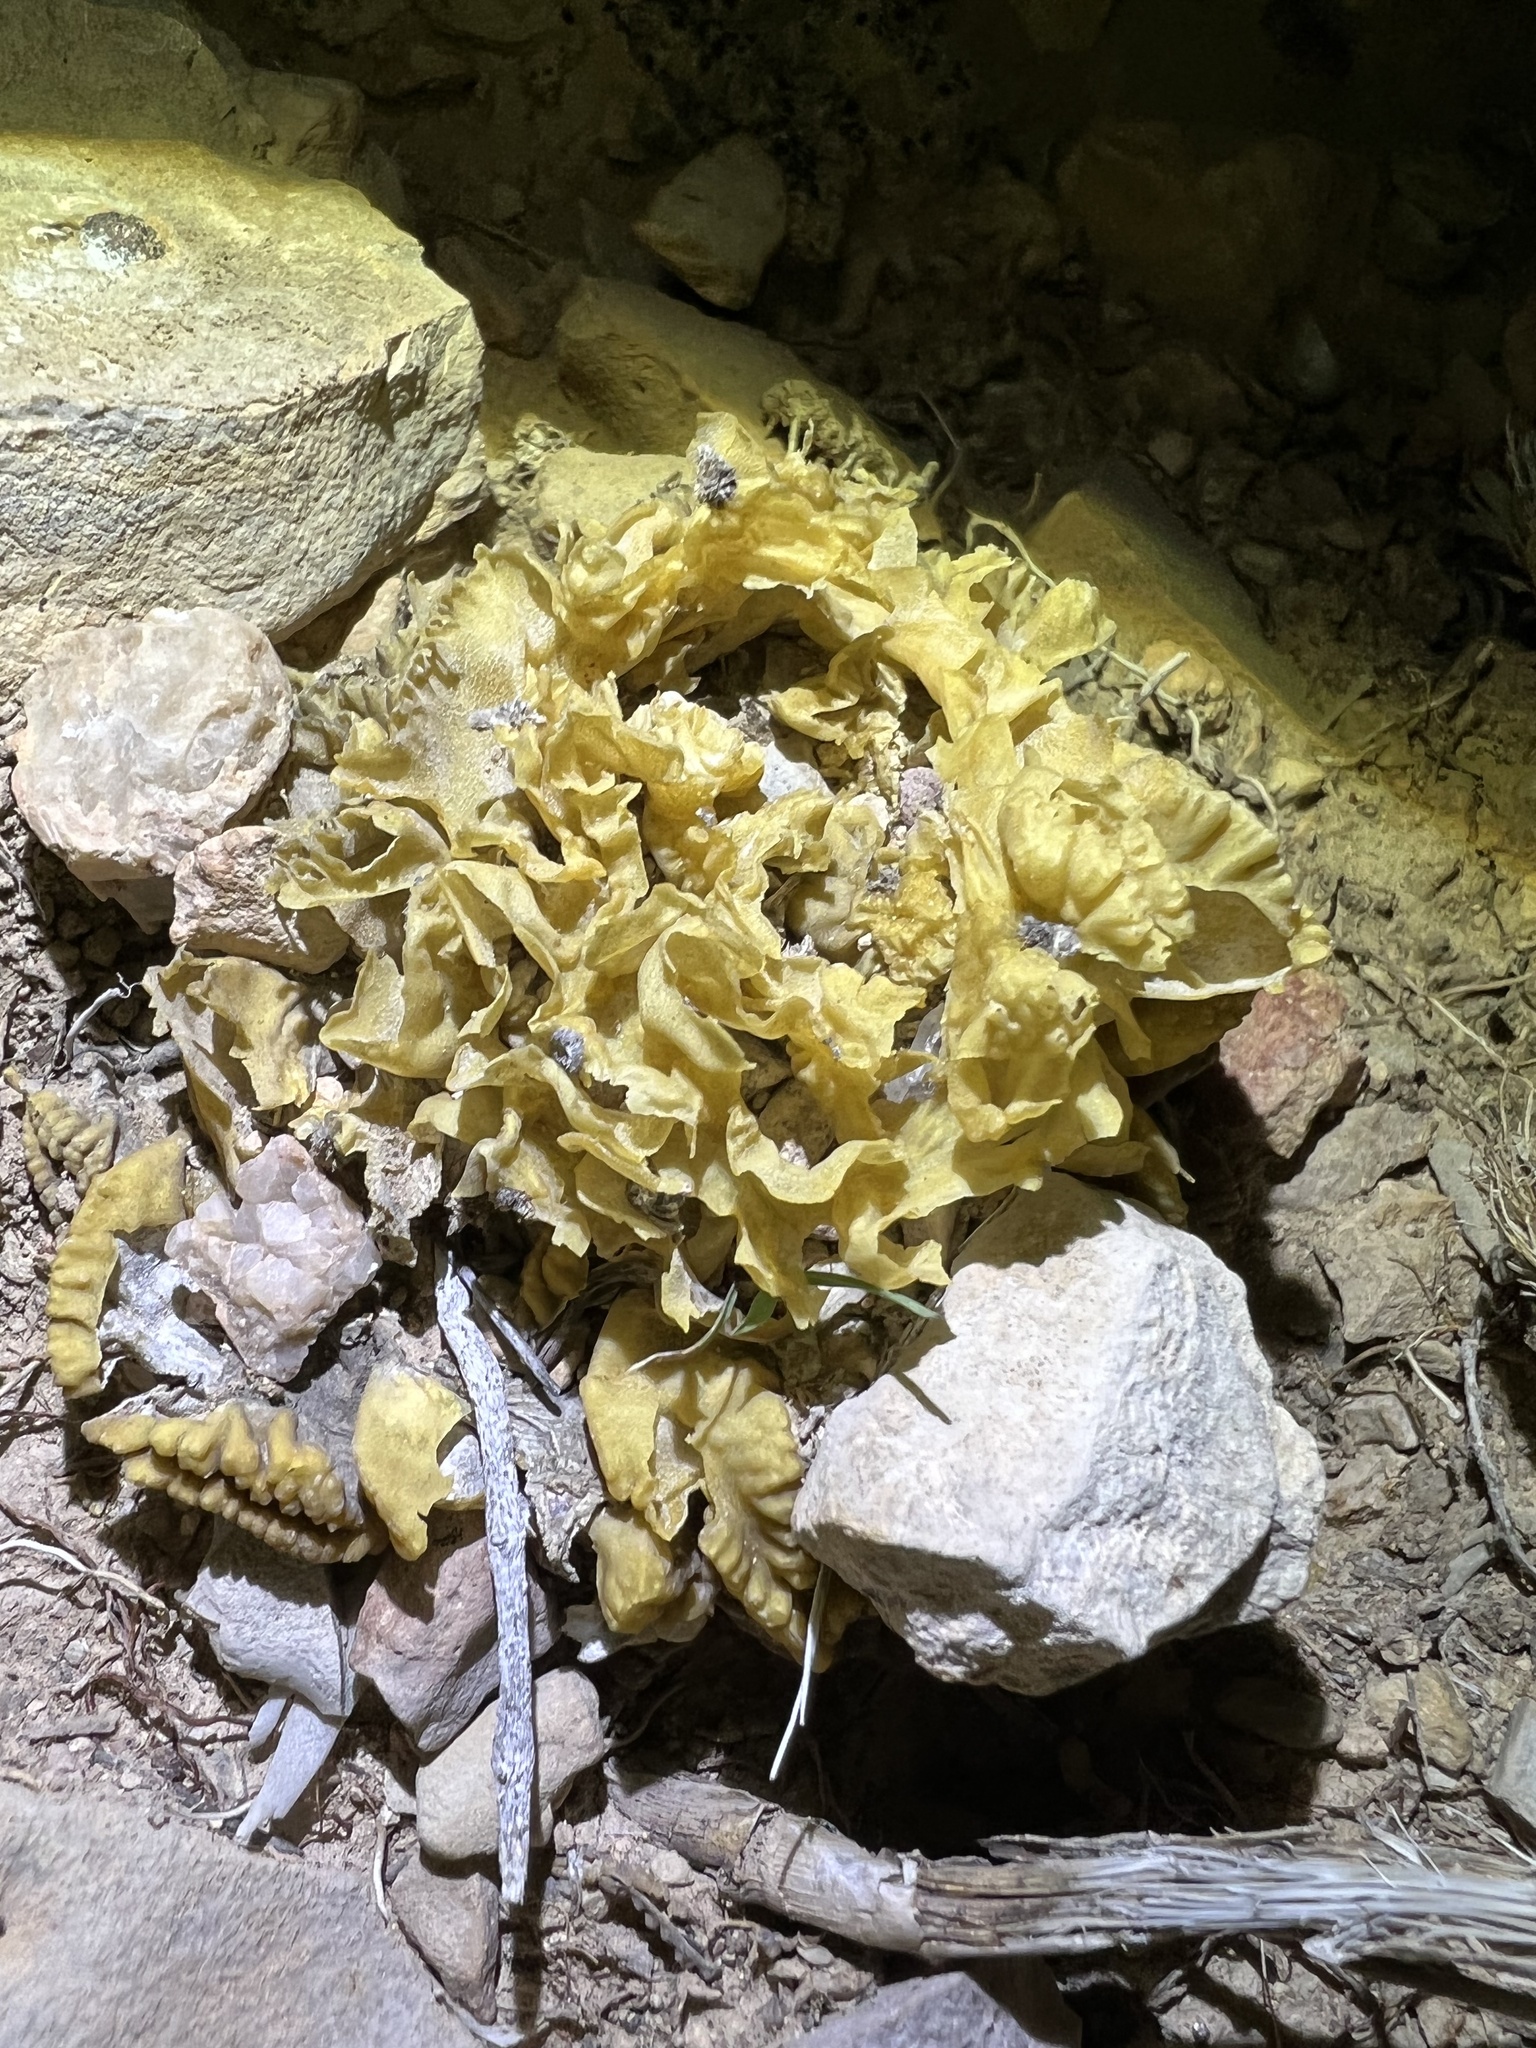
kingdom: Plantae
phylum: Tracheophyta
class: Magnoliopsida
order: Caryophyllales
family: Cactaceae
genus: Ariocarpus
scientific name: Ariocarpus fissuratus
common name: Chautle-living rock
